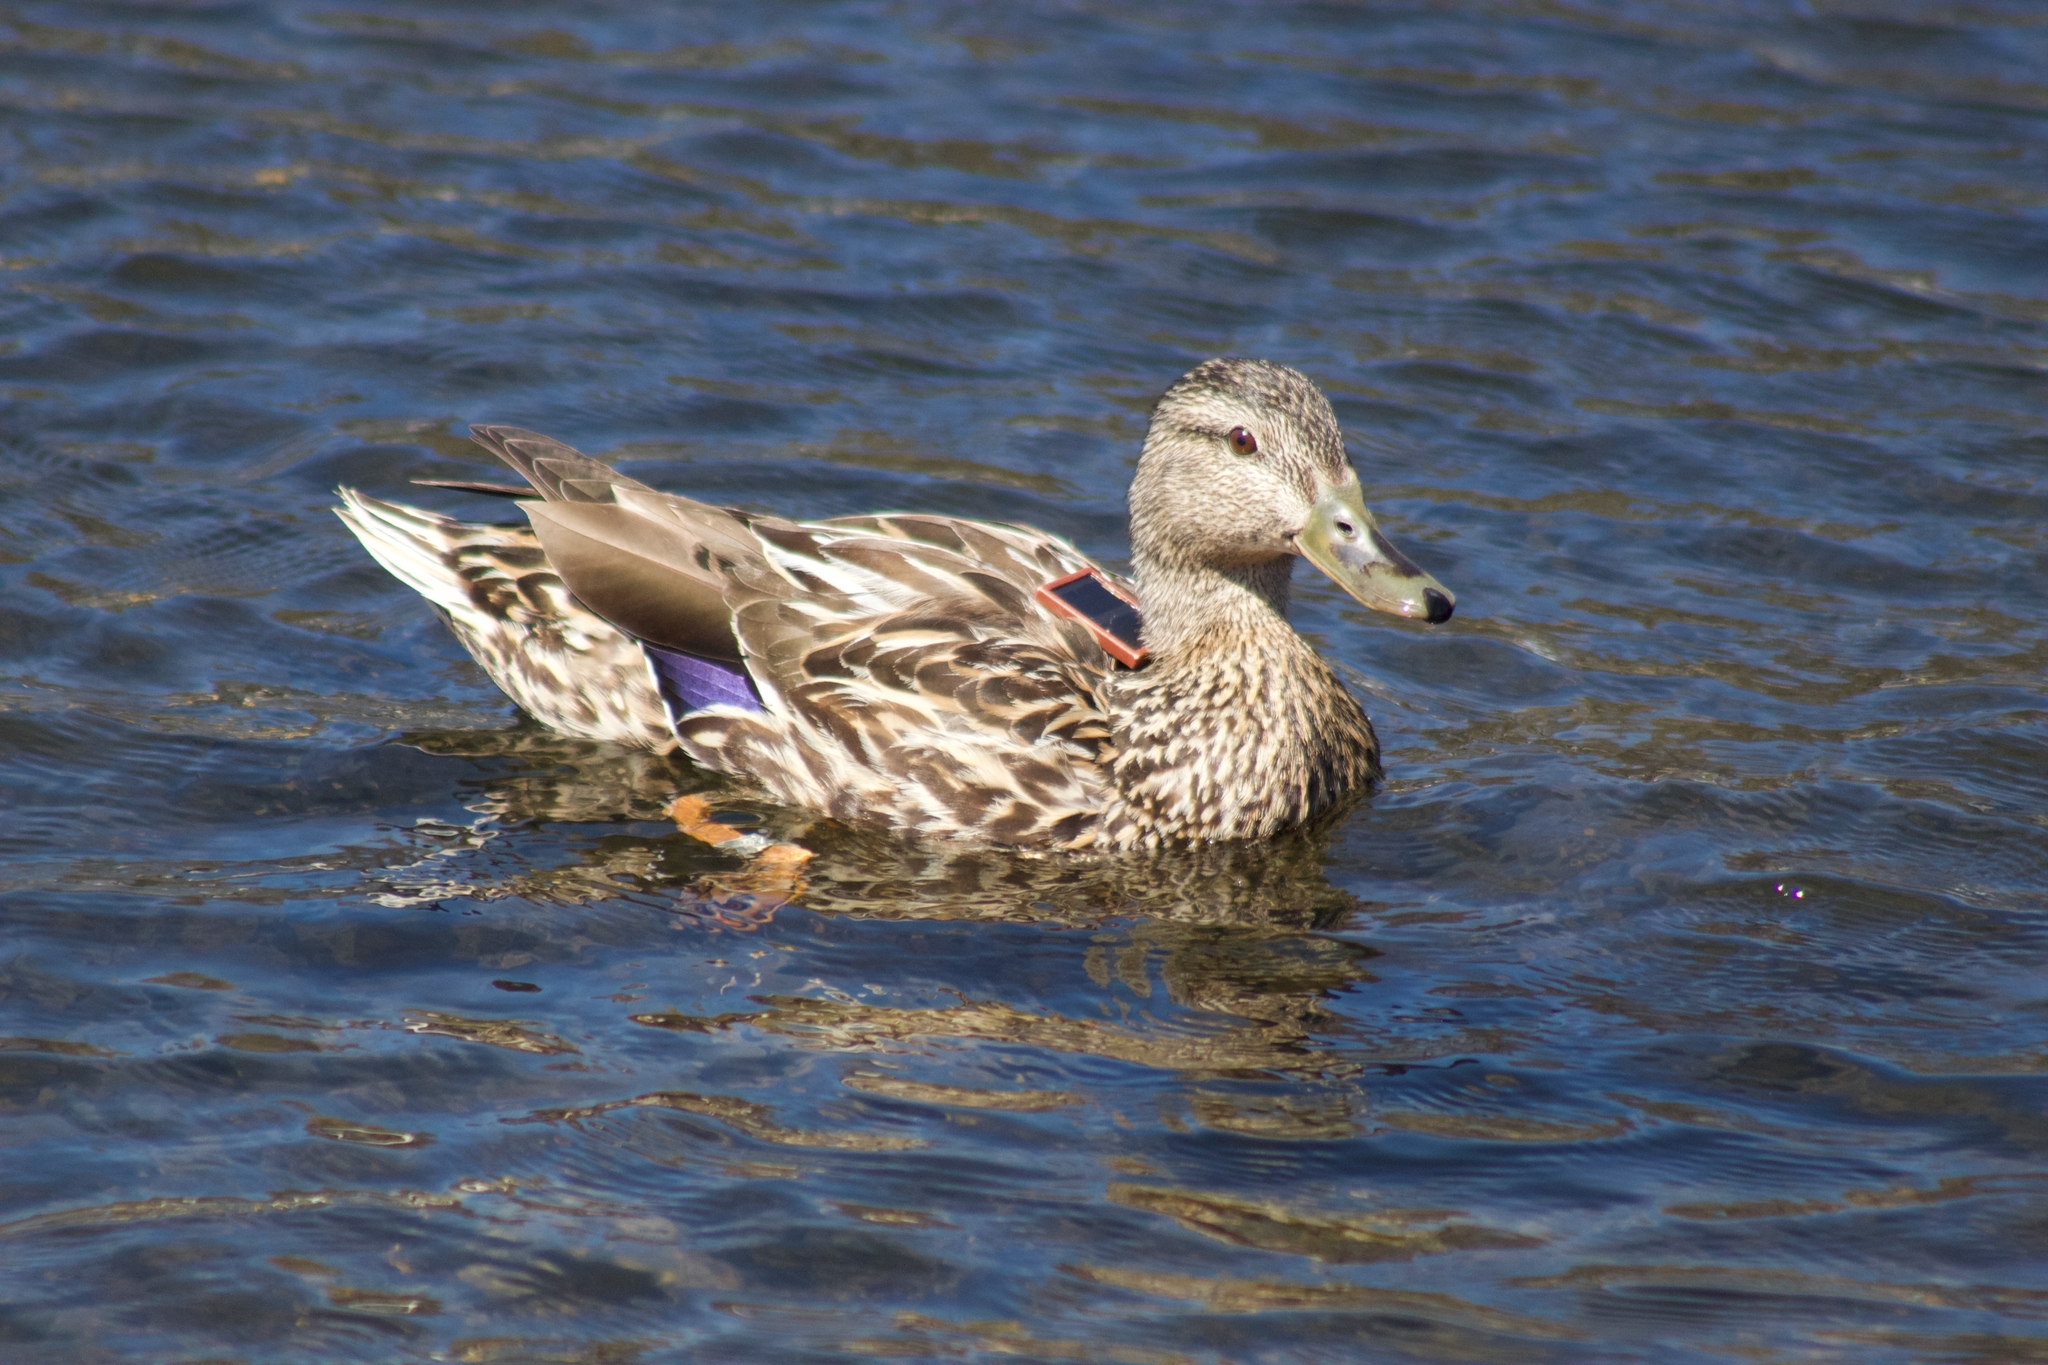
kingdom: Animalia
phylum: Chordata
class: Aves
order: Anseriformes
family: Anatidae
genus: Anas
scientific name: Anas platyrhynchos
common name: Mallard
